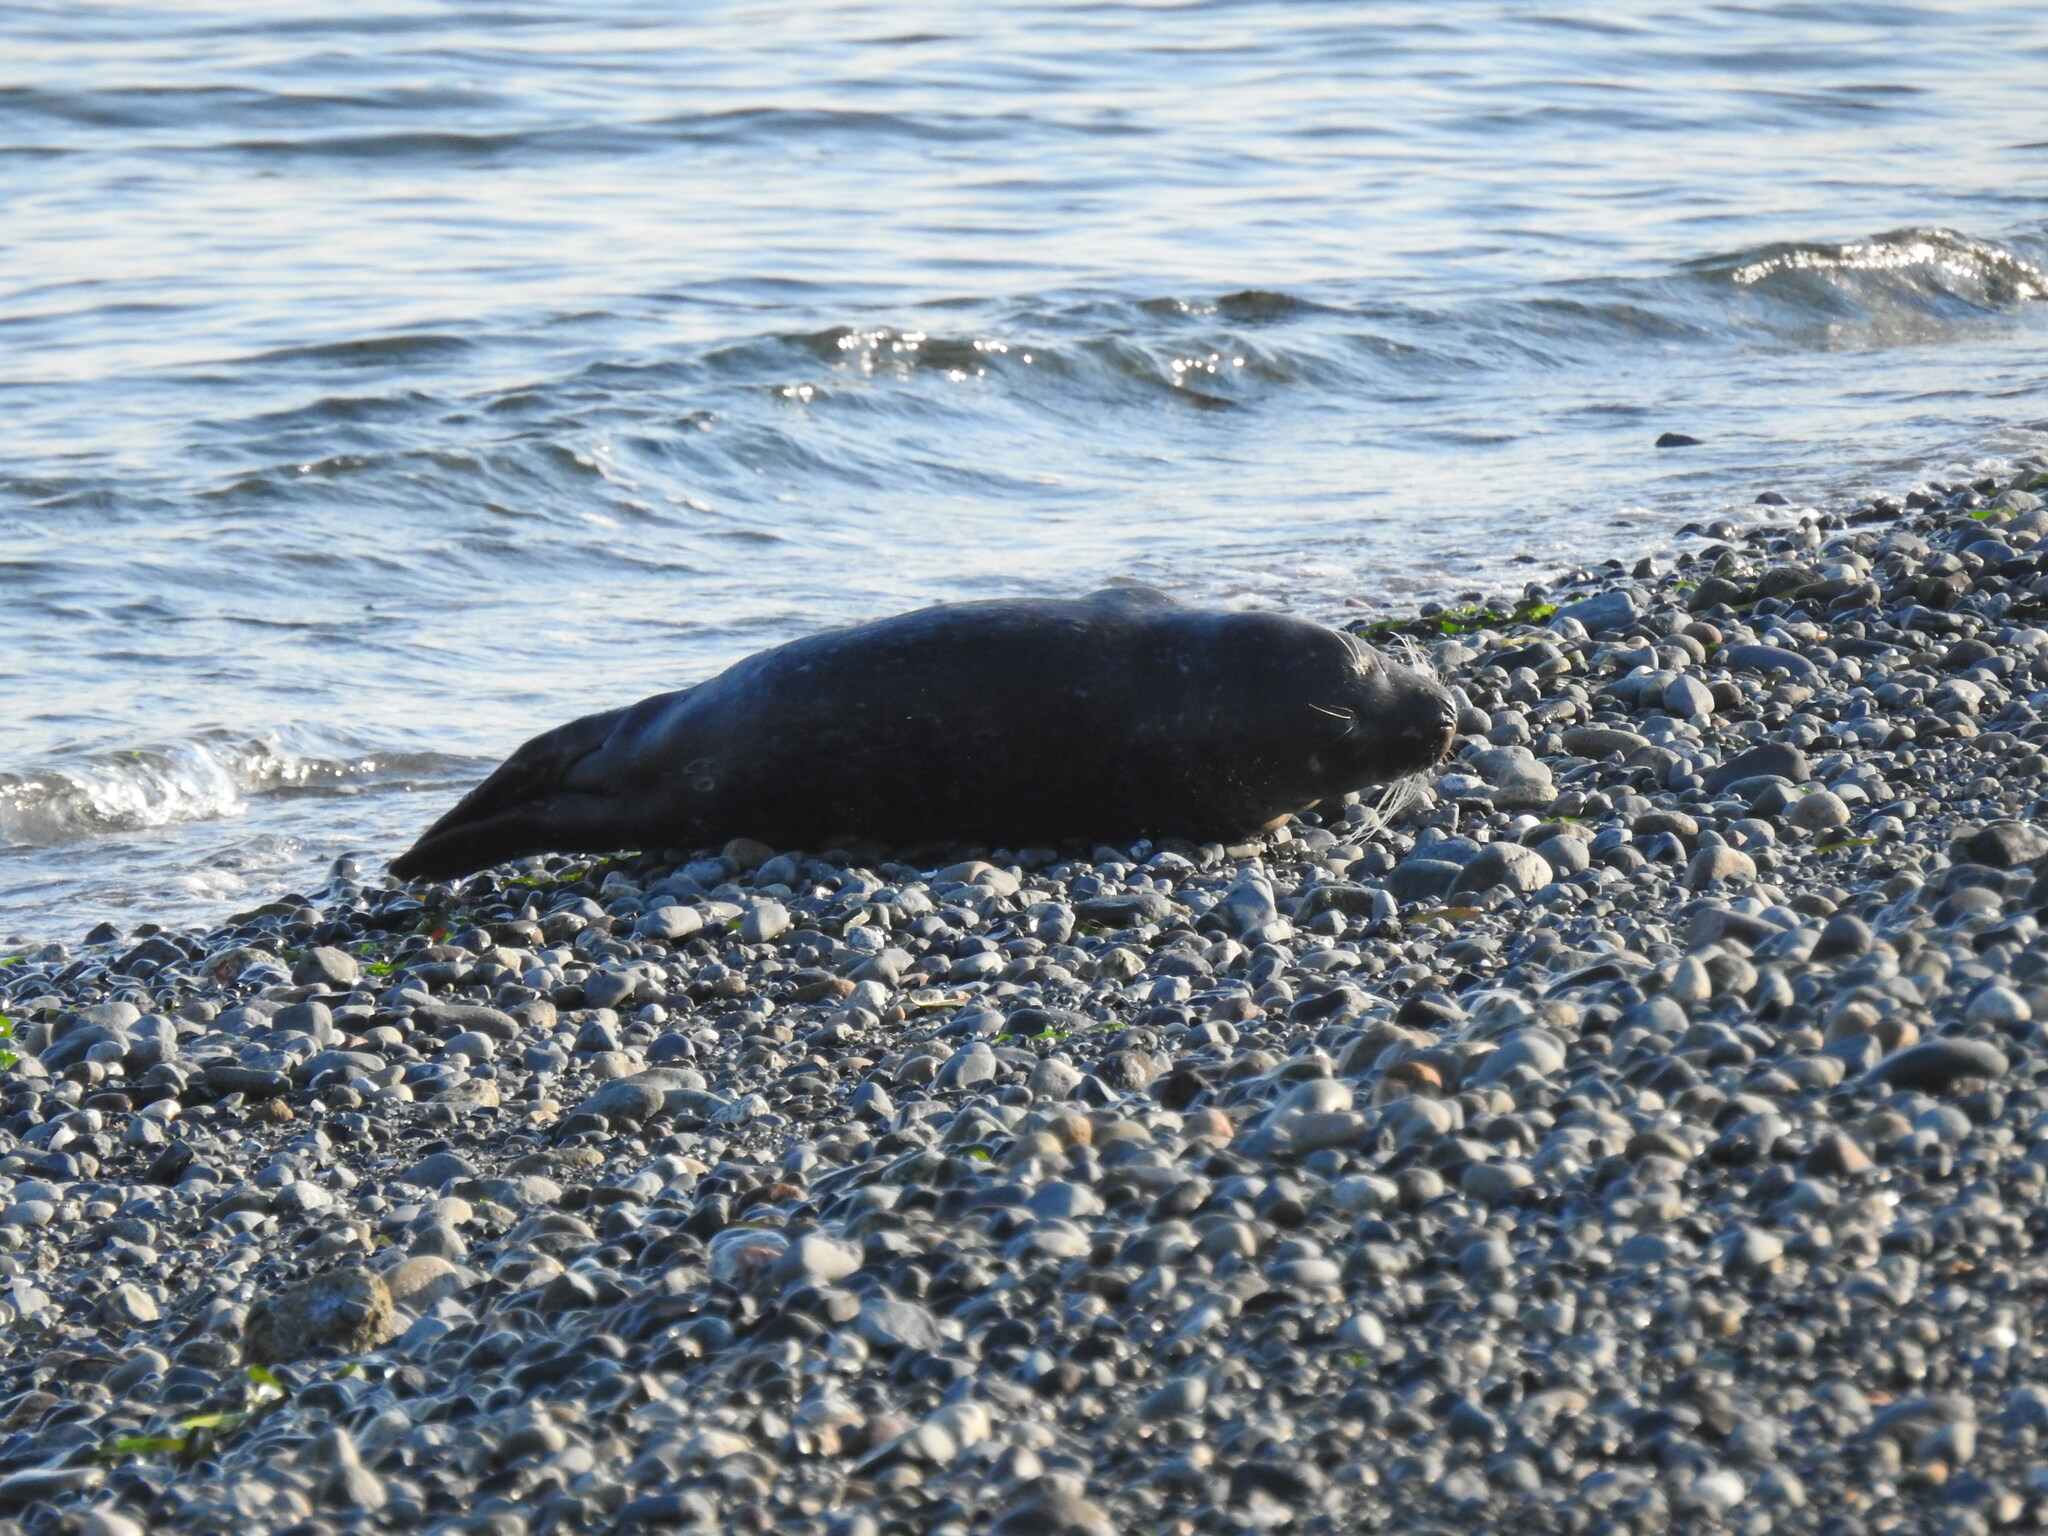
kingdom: Animalia
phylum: Chordata
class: Mammalia
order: Carnivora
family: Phocidae
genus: Phoca
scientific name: Phoca vitulina
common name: Harbor seal
